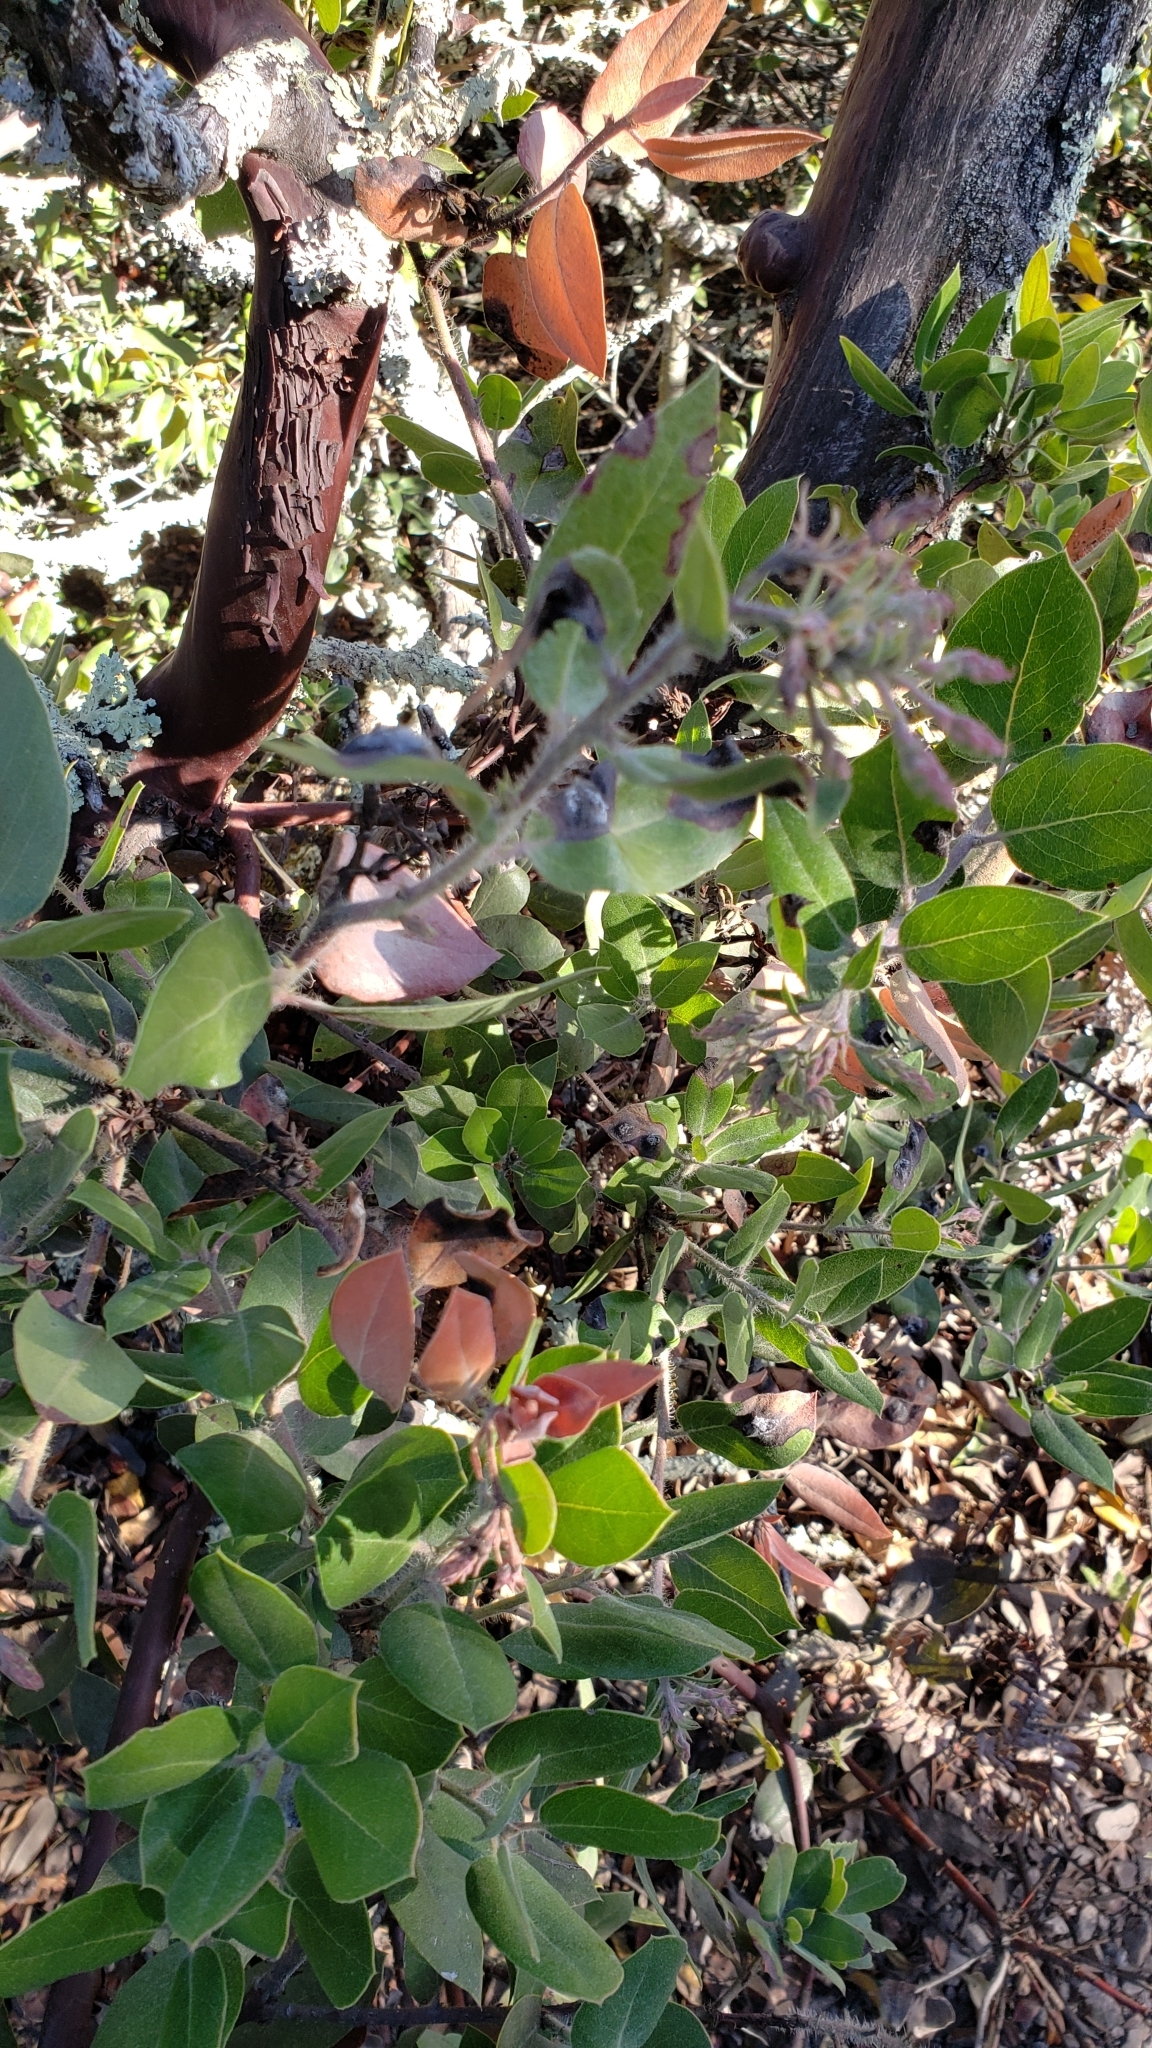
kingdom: Plantae
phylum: Tracheophyta
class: Magnoliopsida
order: Ericales
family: Ericaceae
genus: Arctostaphylos
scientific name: Arctostaphylos crustacea
